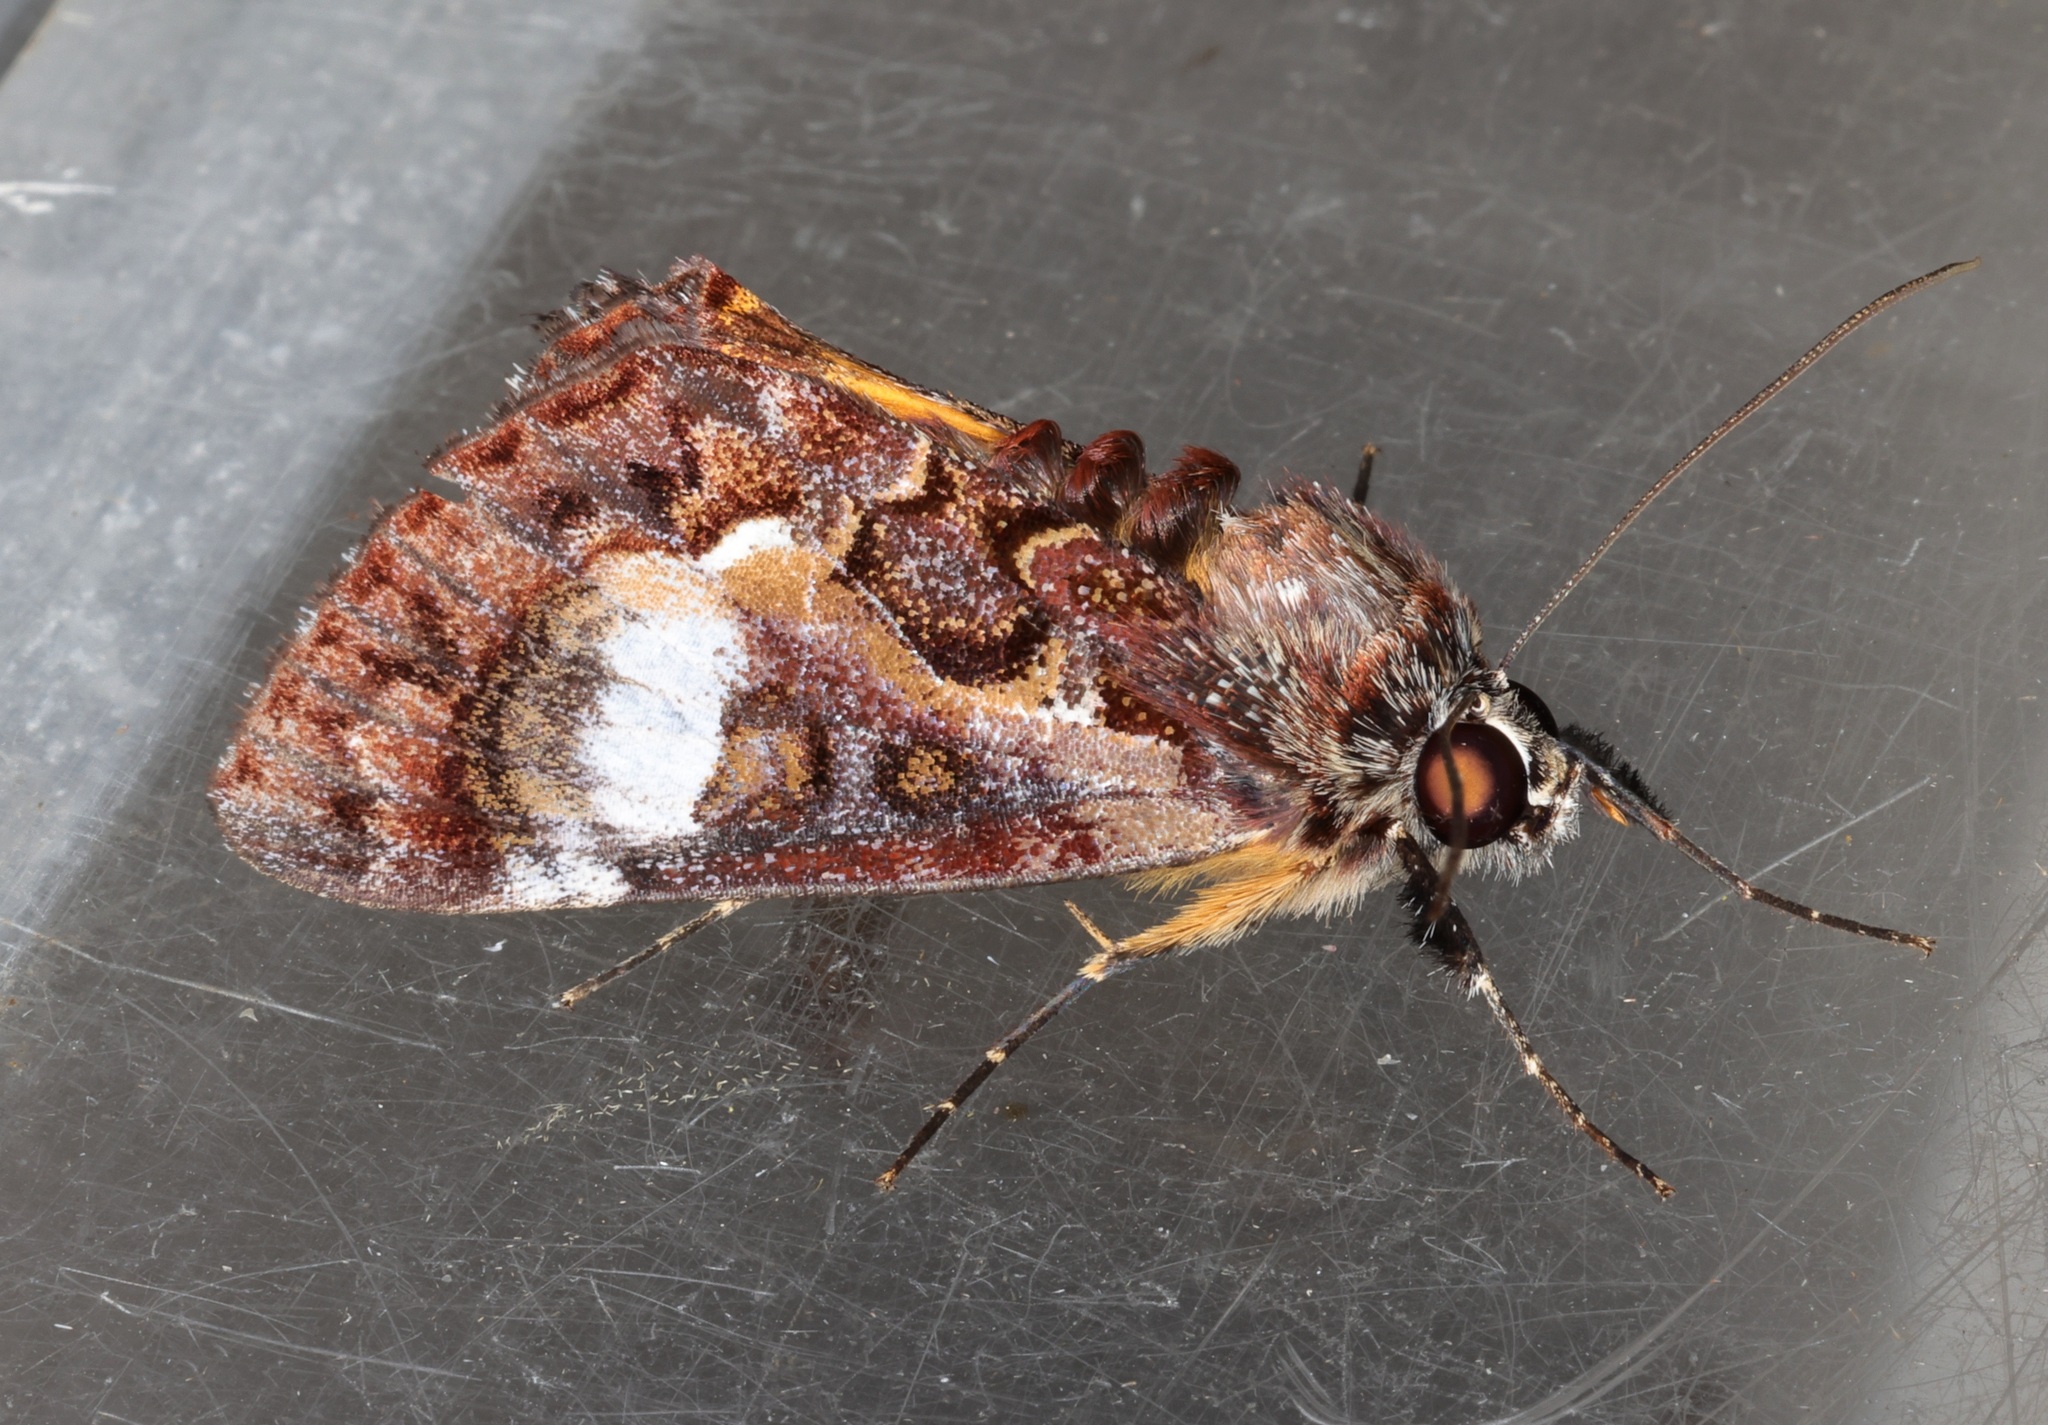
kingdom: Animalia
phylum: Arthropoda
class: Insecta
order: Lepidoptera
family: Noctuidae
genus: Sarbanissa
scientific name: Sarbanissa albifascia
